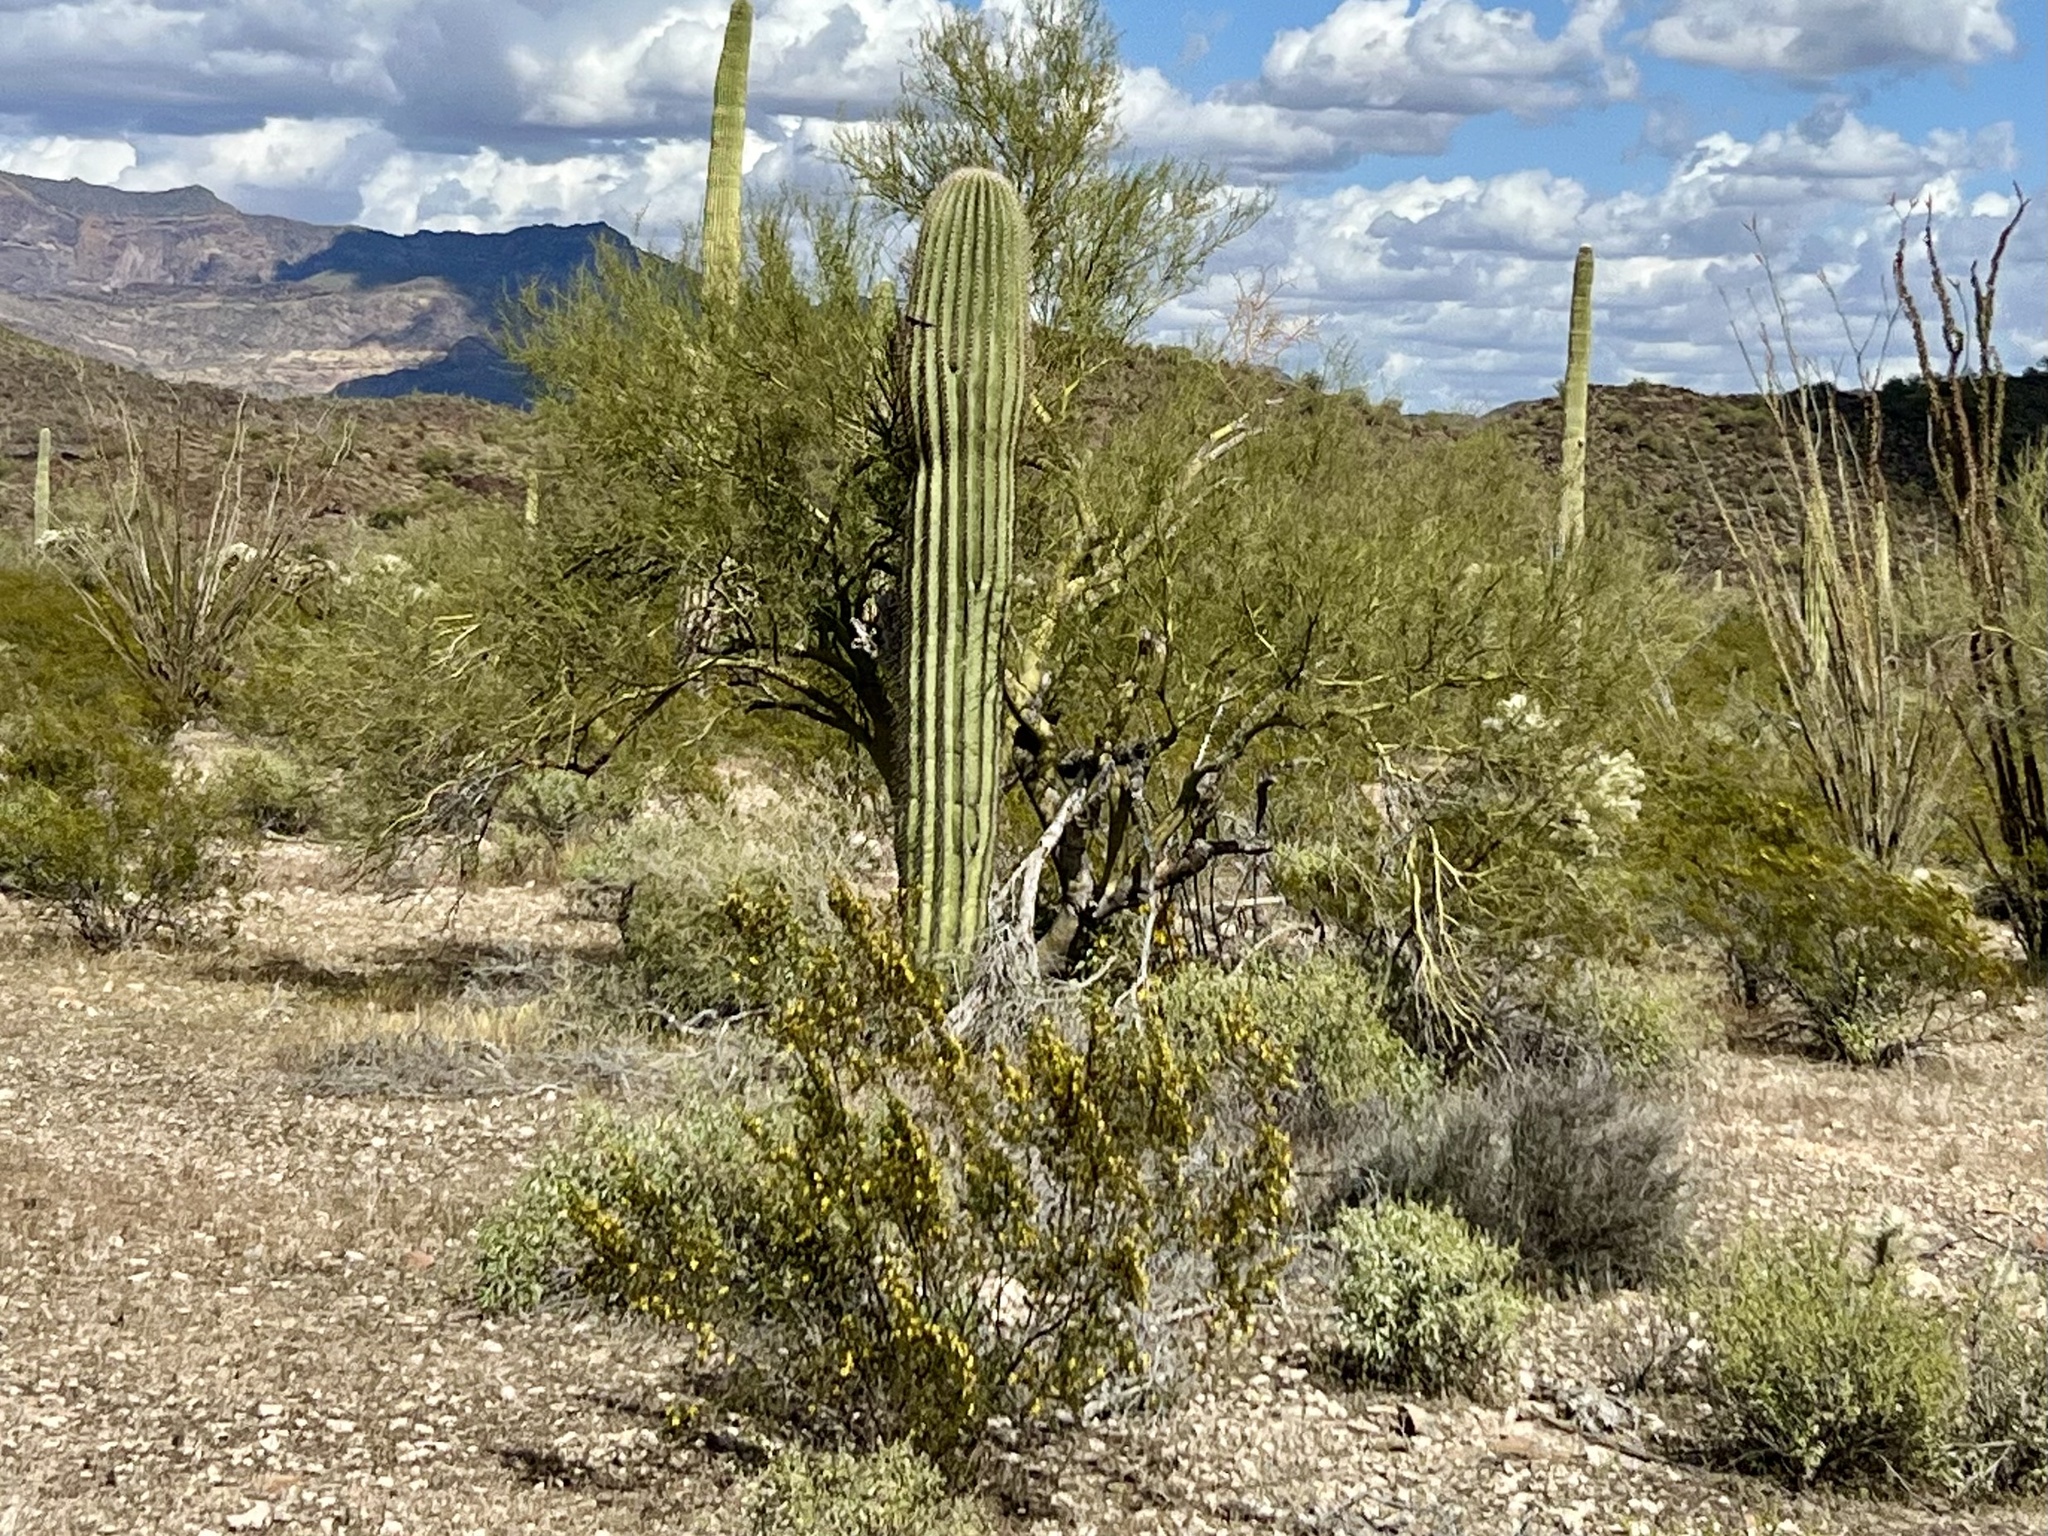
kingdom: Plantae
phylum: Tracheophyta
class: Magnoliopsida
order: Caryophyllales
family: Cactaceae
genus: Carnegiea
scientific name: Carnegiea gigantea
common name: Saguaro
